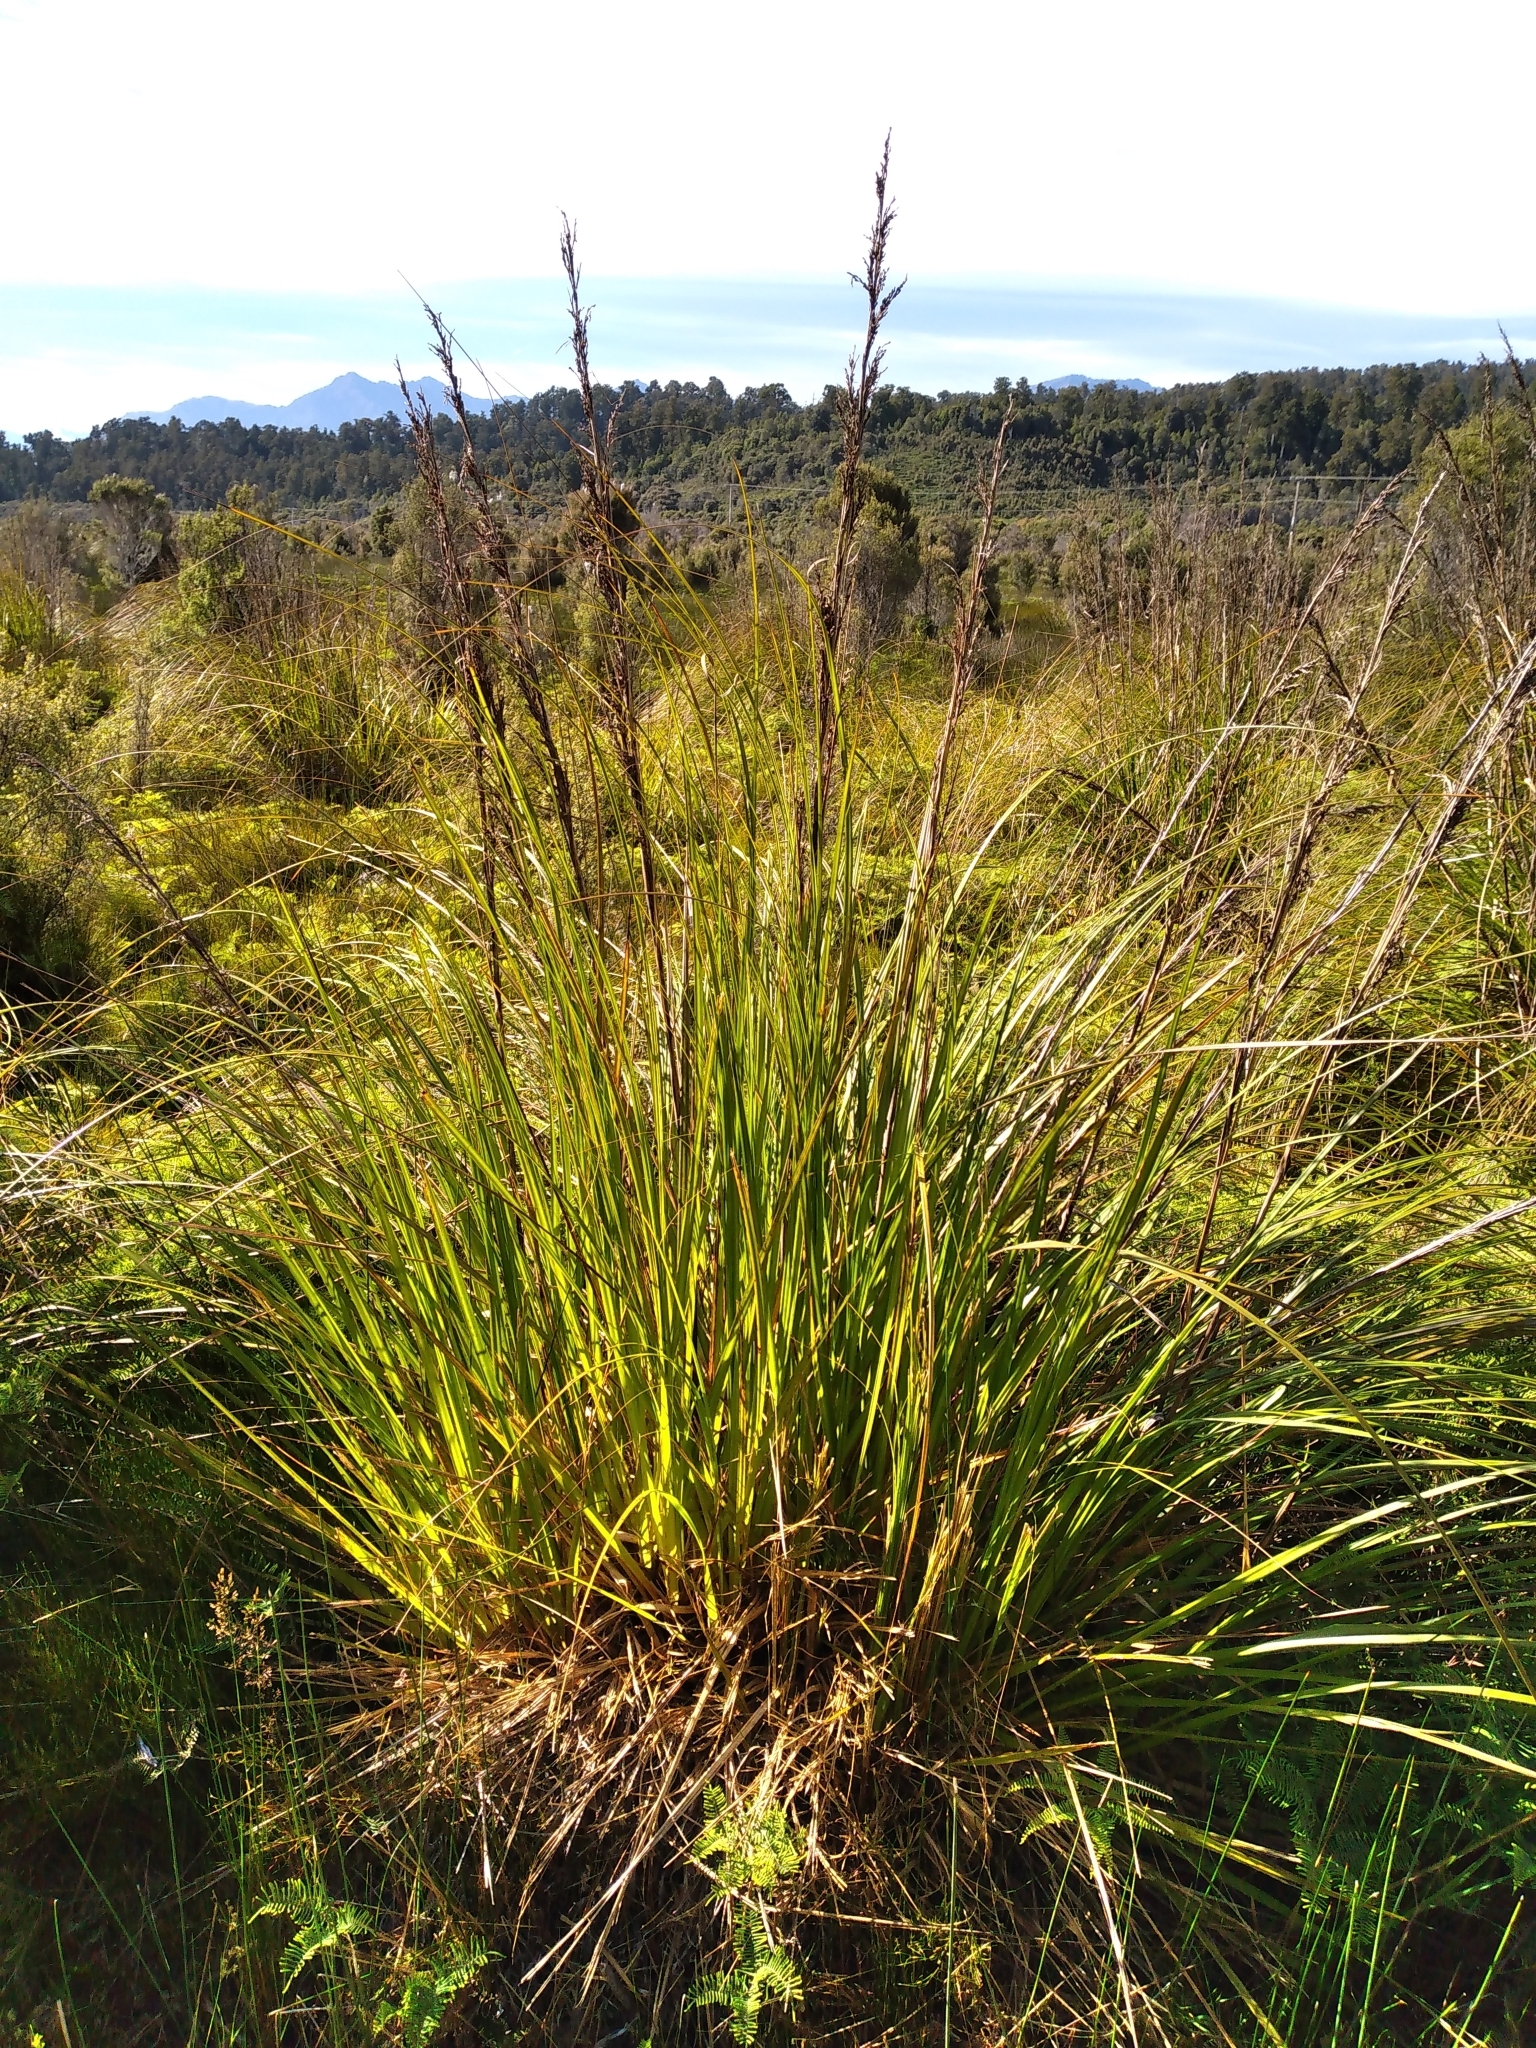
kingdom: Plantae
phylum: Tracheophyta
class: Liliopsida
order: Poales
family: Cyperaceae
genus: Gahnia
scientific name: Gahnia rigida
